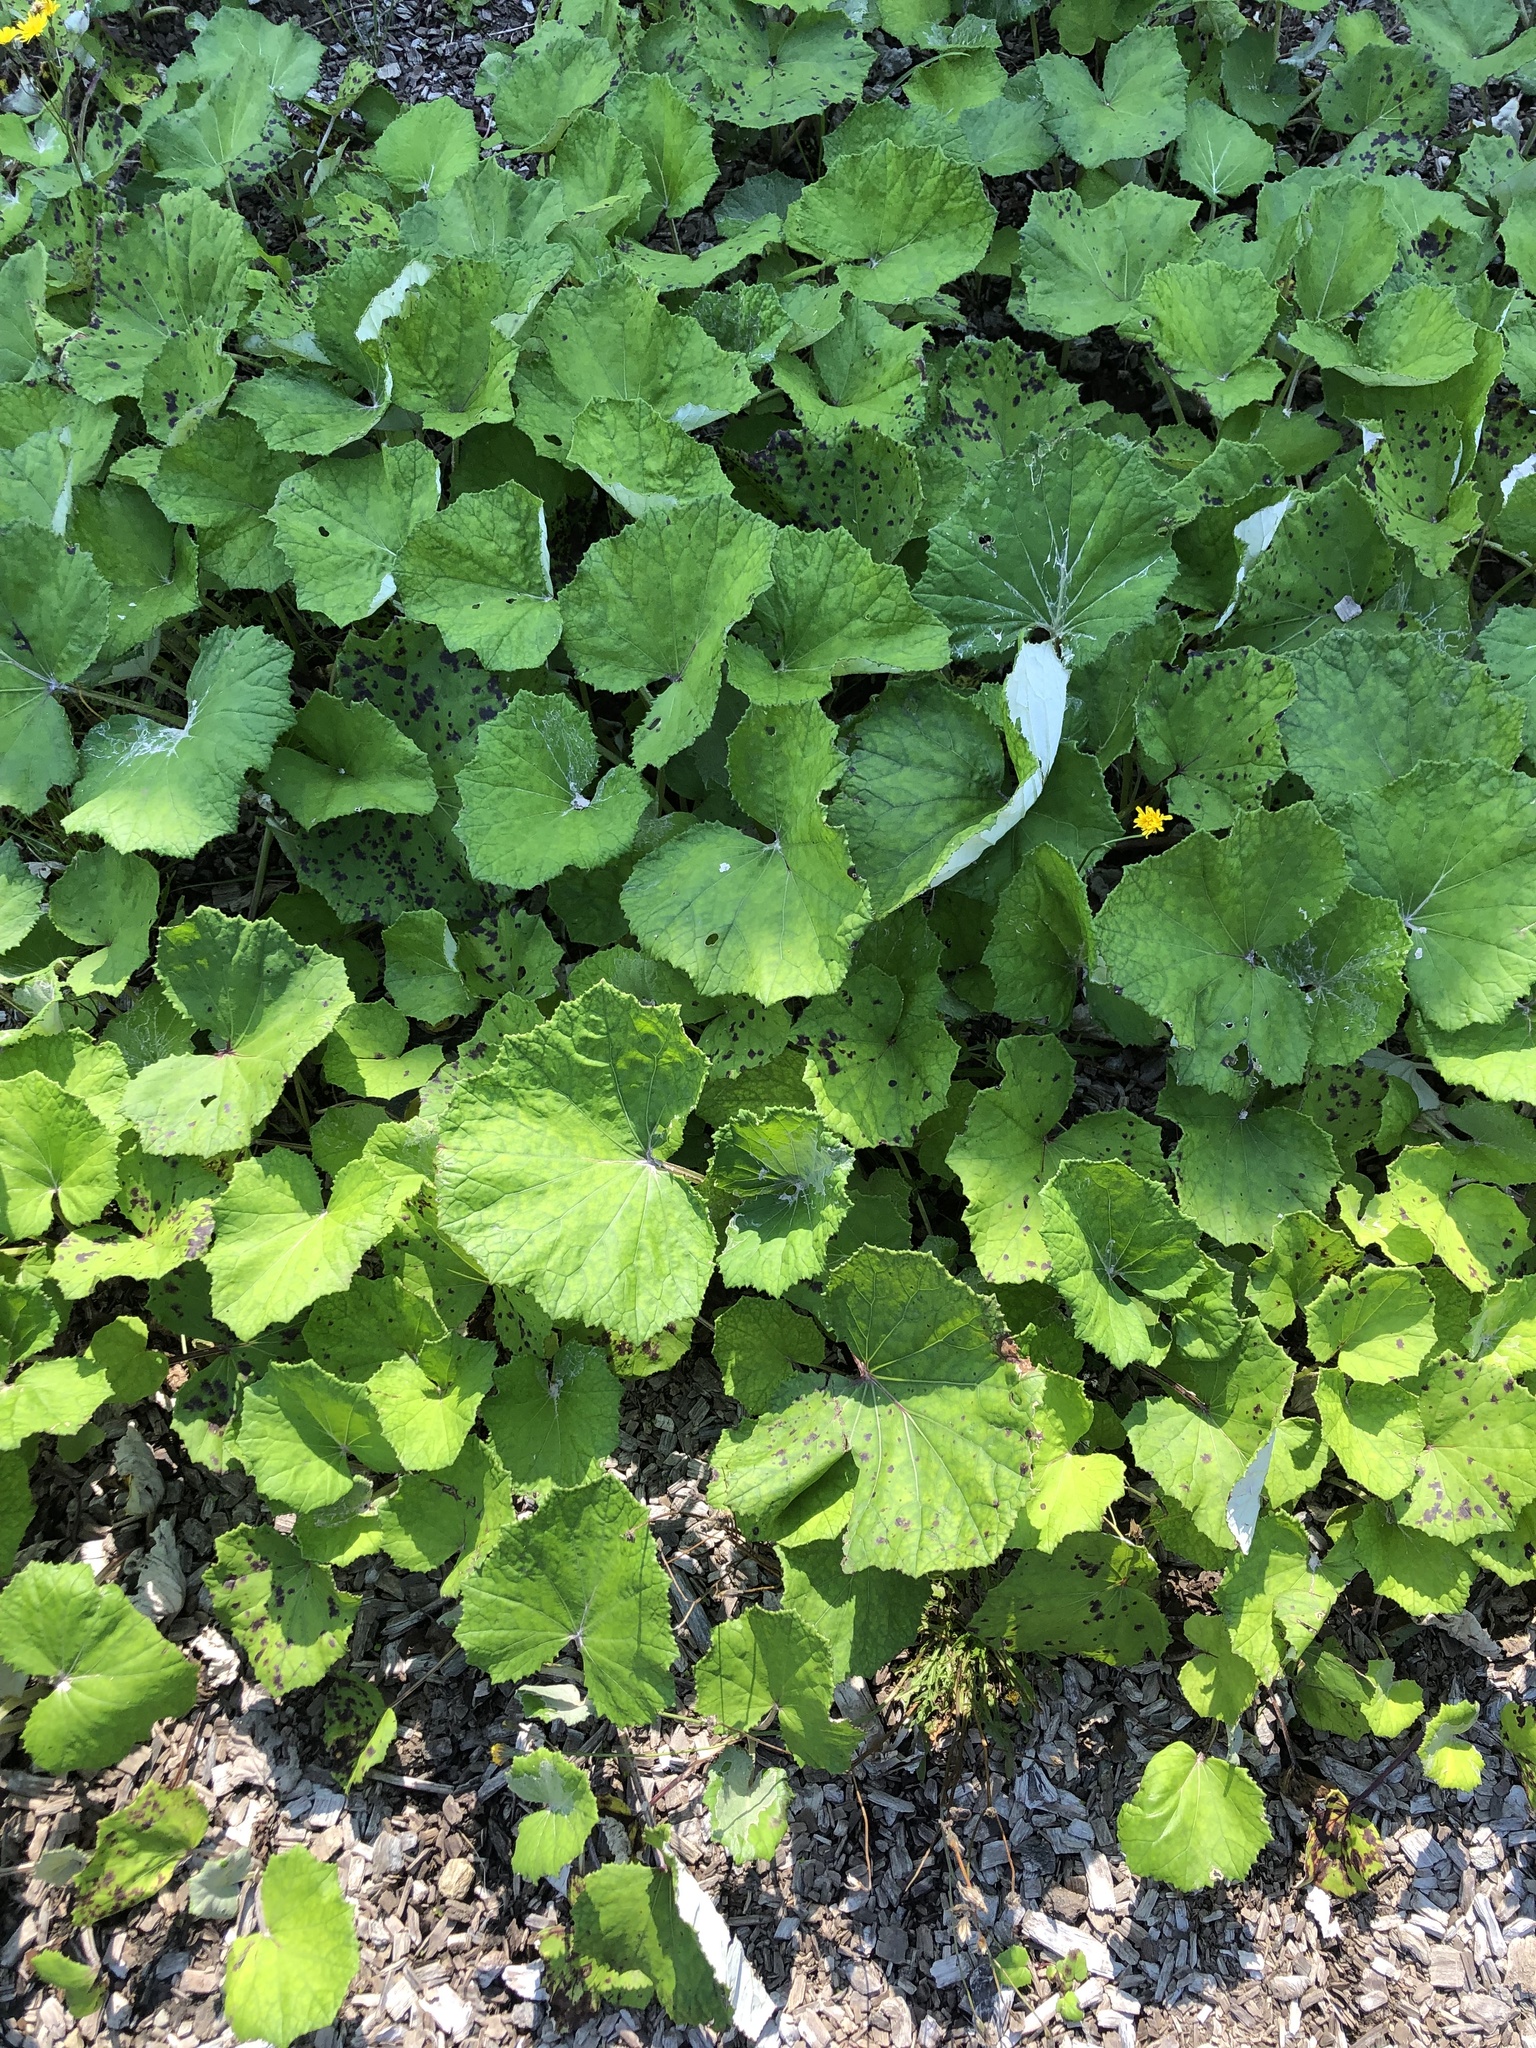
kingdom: Plantae
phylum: Tracheophyta
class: Magnoliopsida
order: Asterales
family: Asteraceae
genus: Tussilago
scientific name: Tussilago farfara
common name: Coltsfoot
